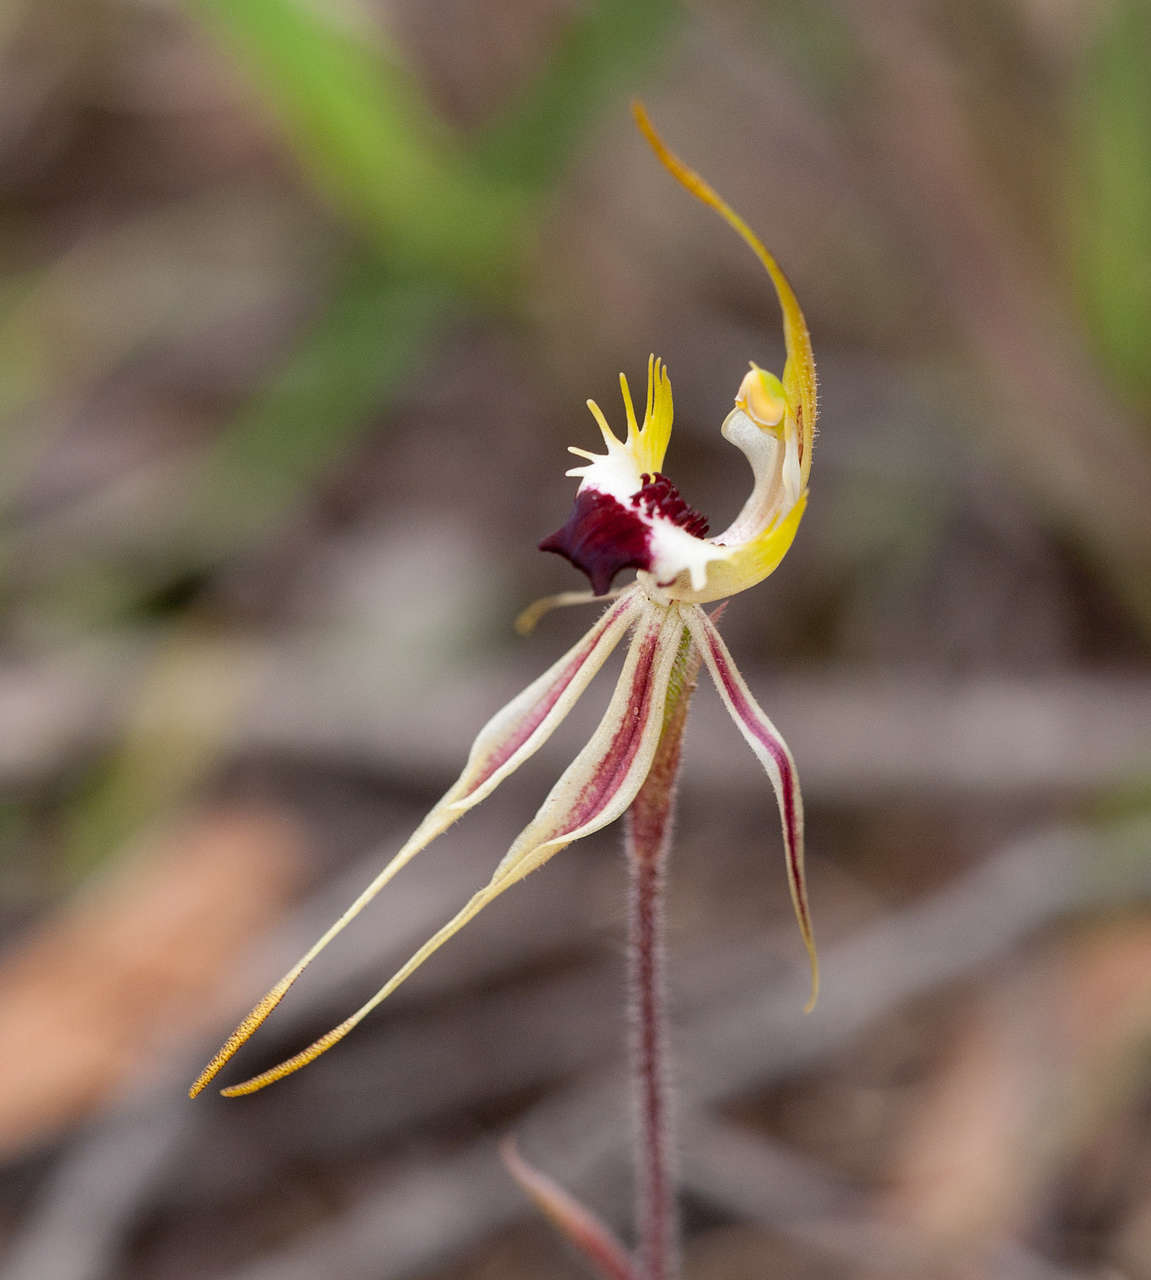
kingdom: Plantae
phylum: Tracheophyta
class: Liliopsida
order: Asparagales
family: Orchidaceae
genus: Caladenia
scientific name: Caladenia parva
